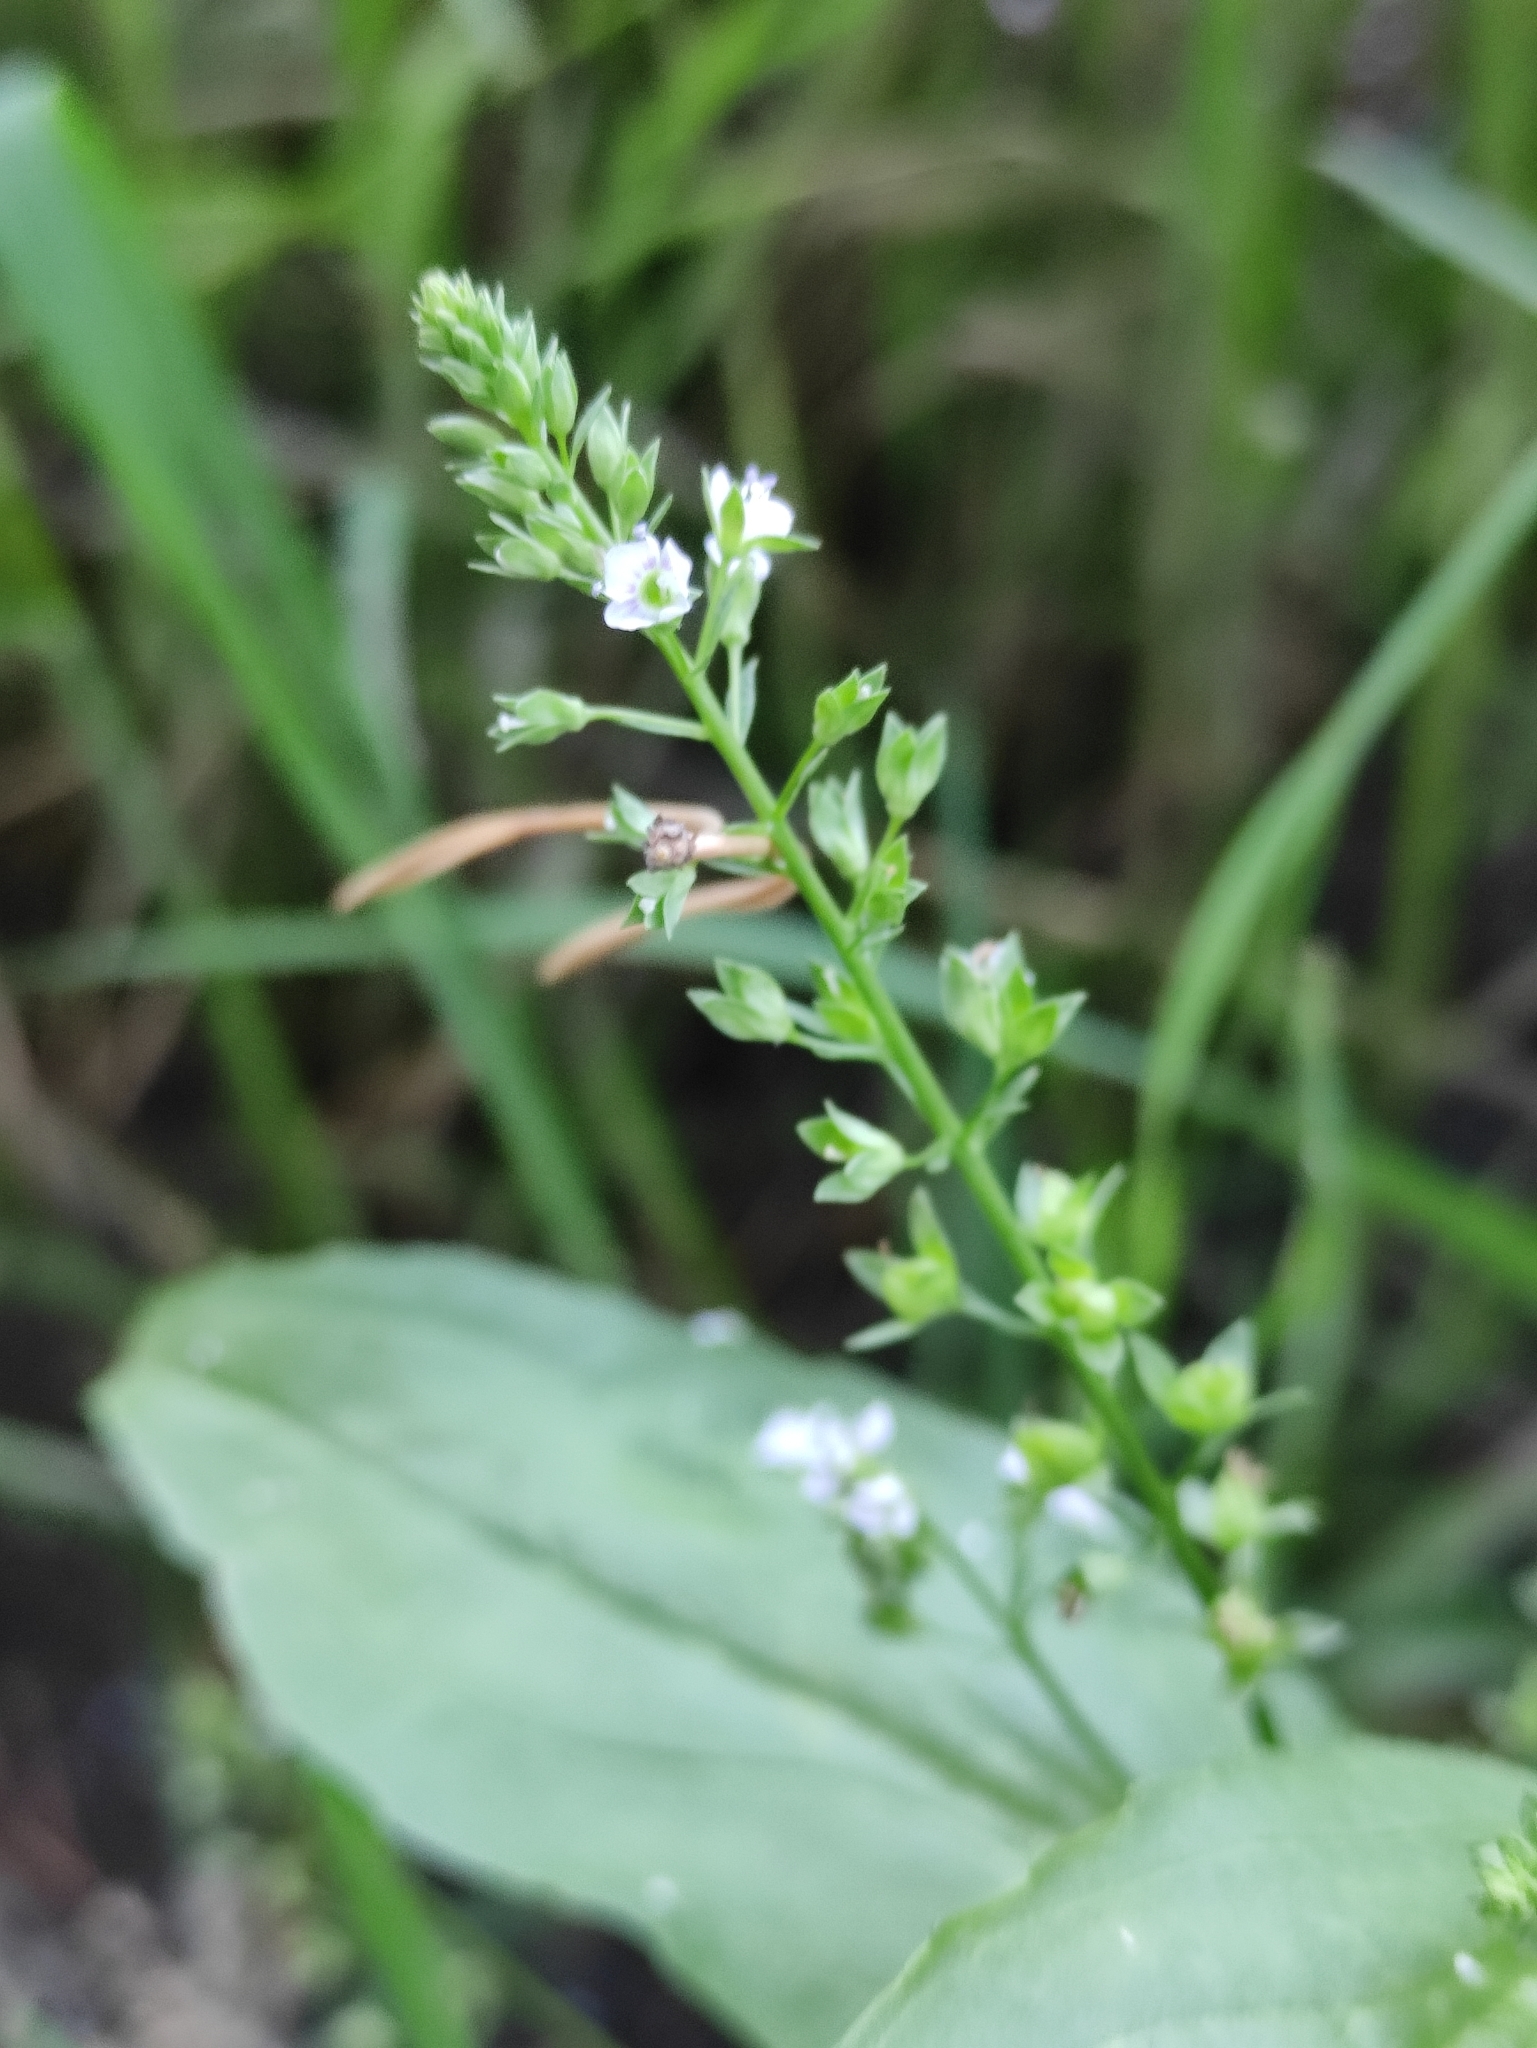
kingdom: Plantae
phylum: Tracheophyta
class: Magnoliopsida
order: Lamiales
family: Plantaginaceae
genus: Veronica
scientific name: Veronica anagallis-aquatica
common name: Water speedwell
